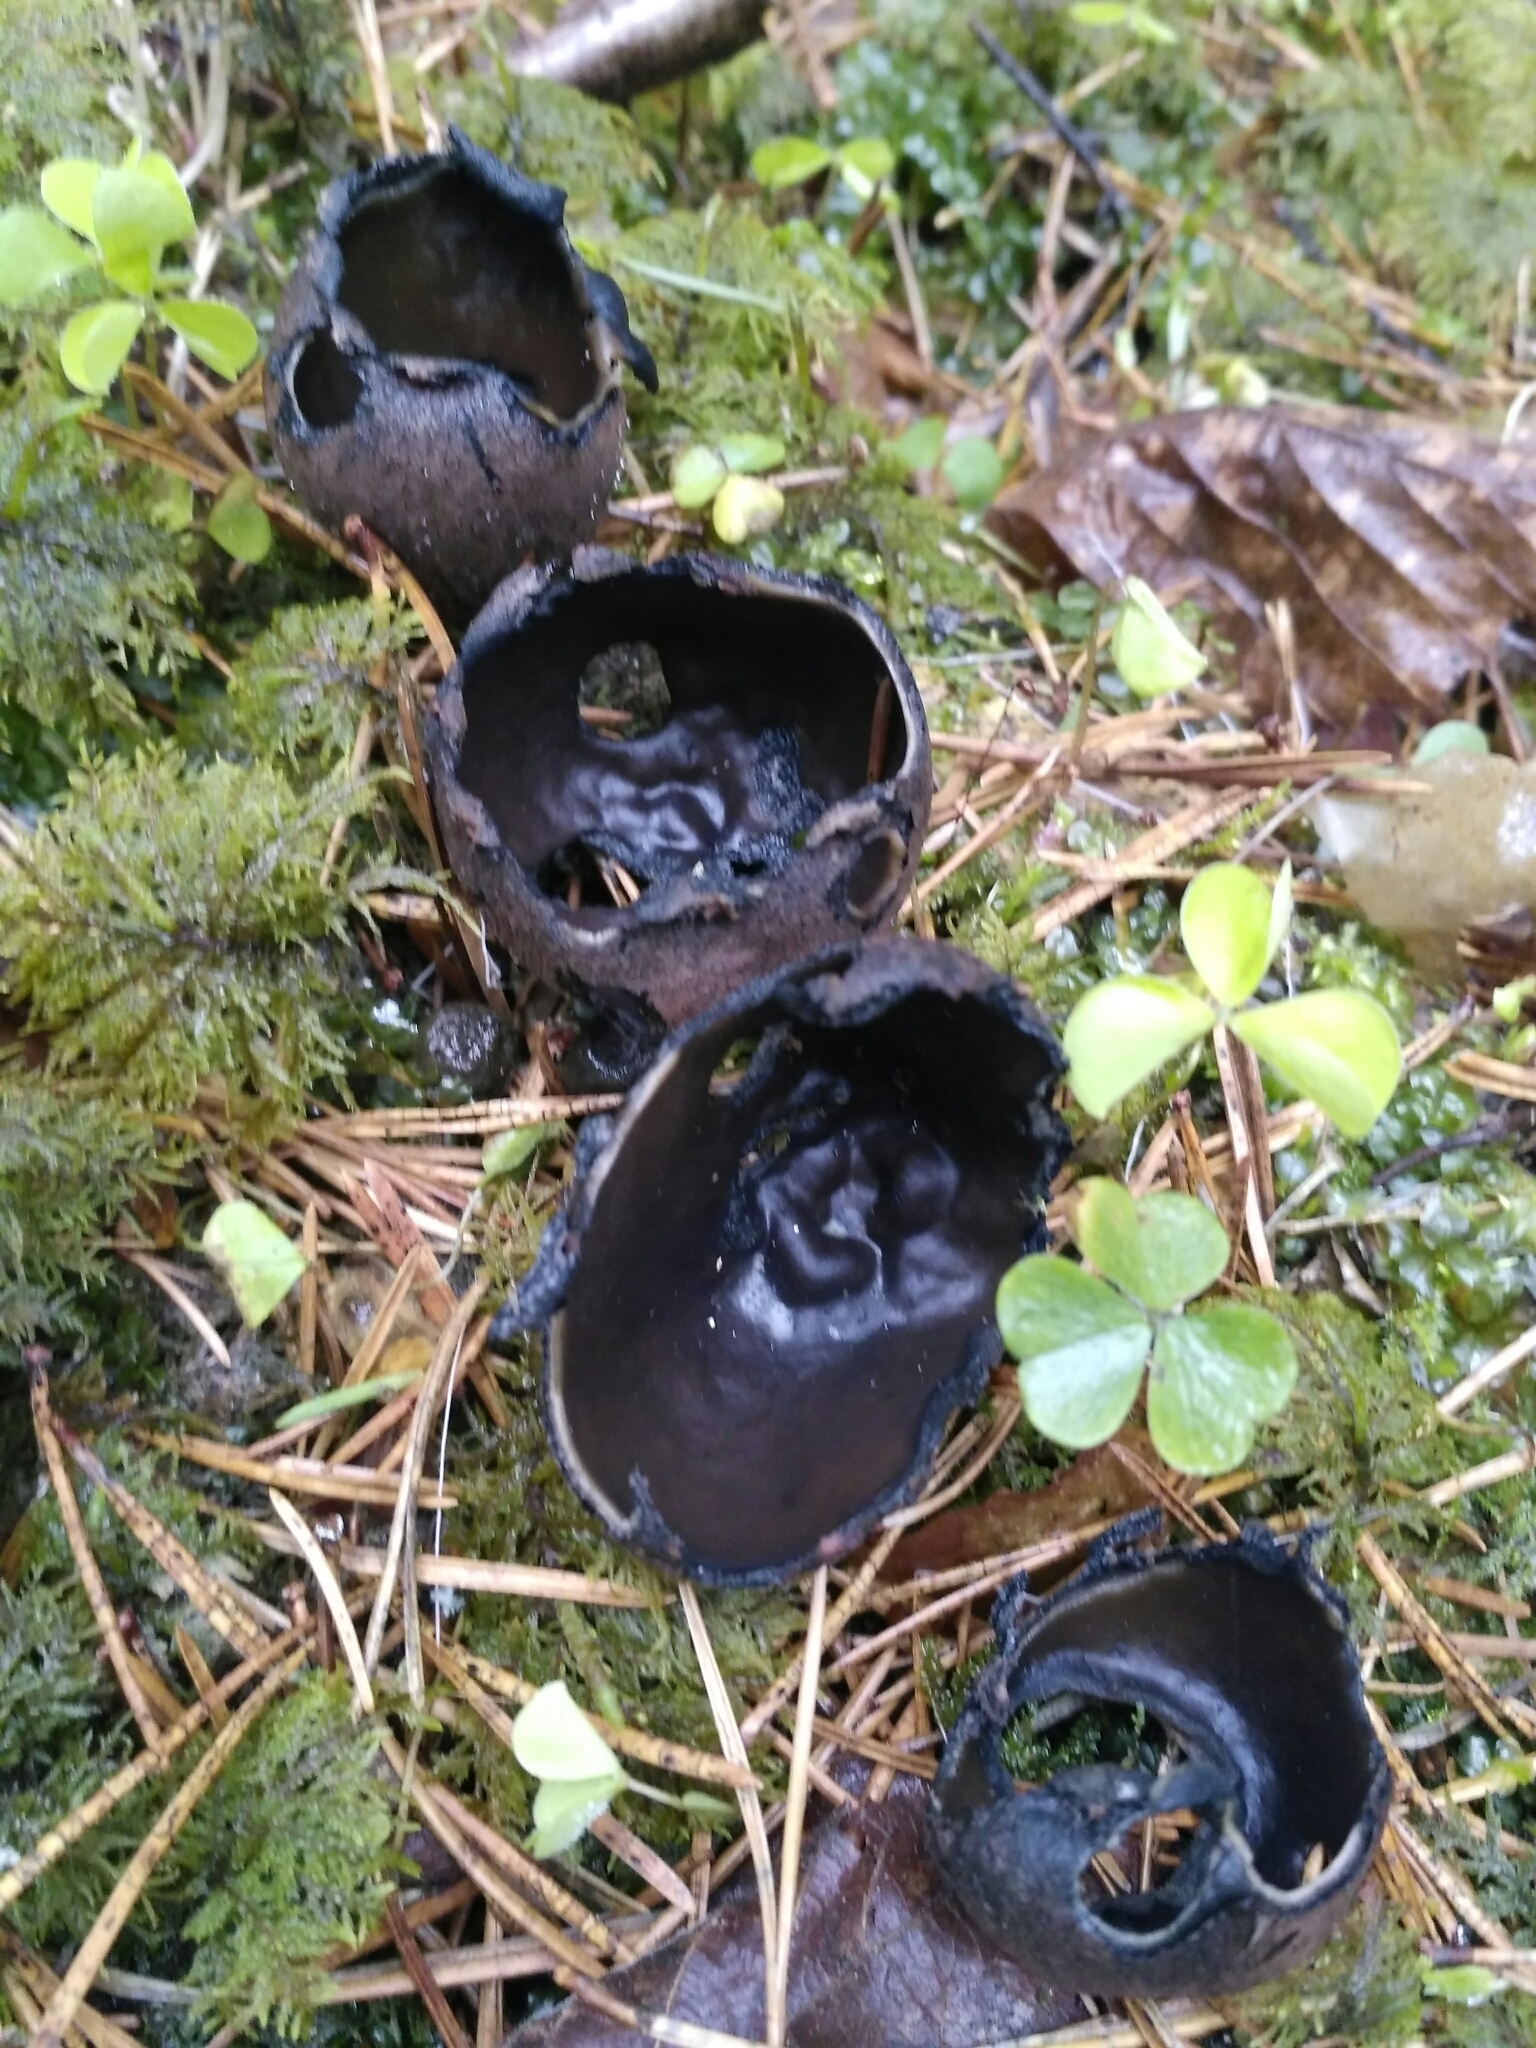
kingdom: Fungi
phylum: Ascomycota
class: Pezizomycetes
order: Pezizales
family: Sarcosomataceae
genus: Urnula
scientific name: Urnula craterium
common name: Devil's urn
